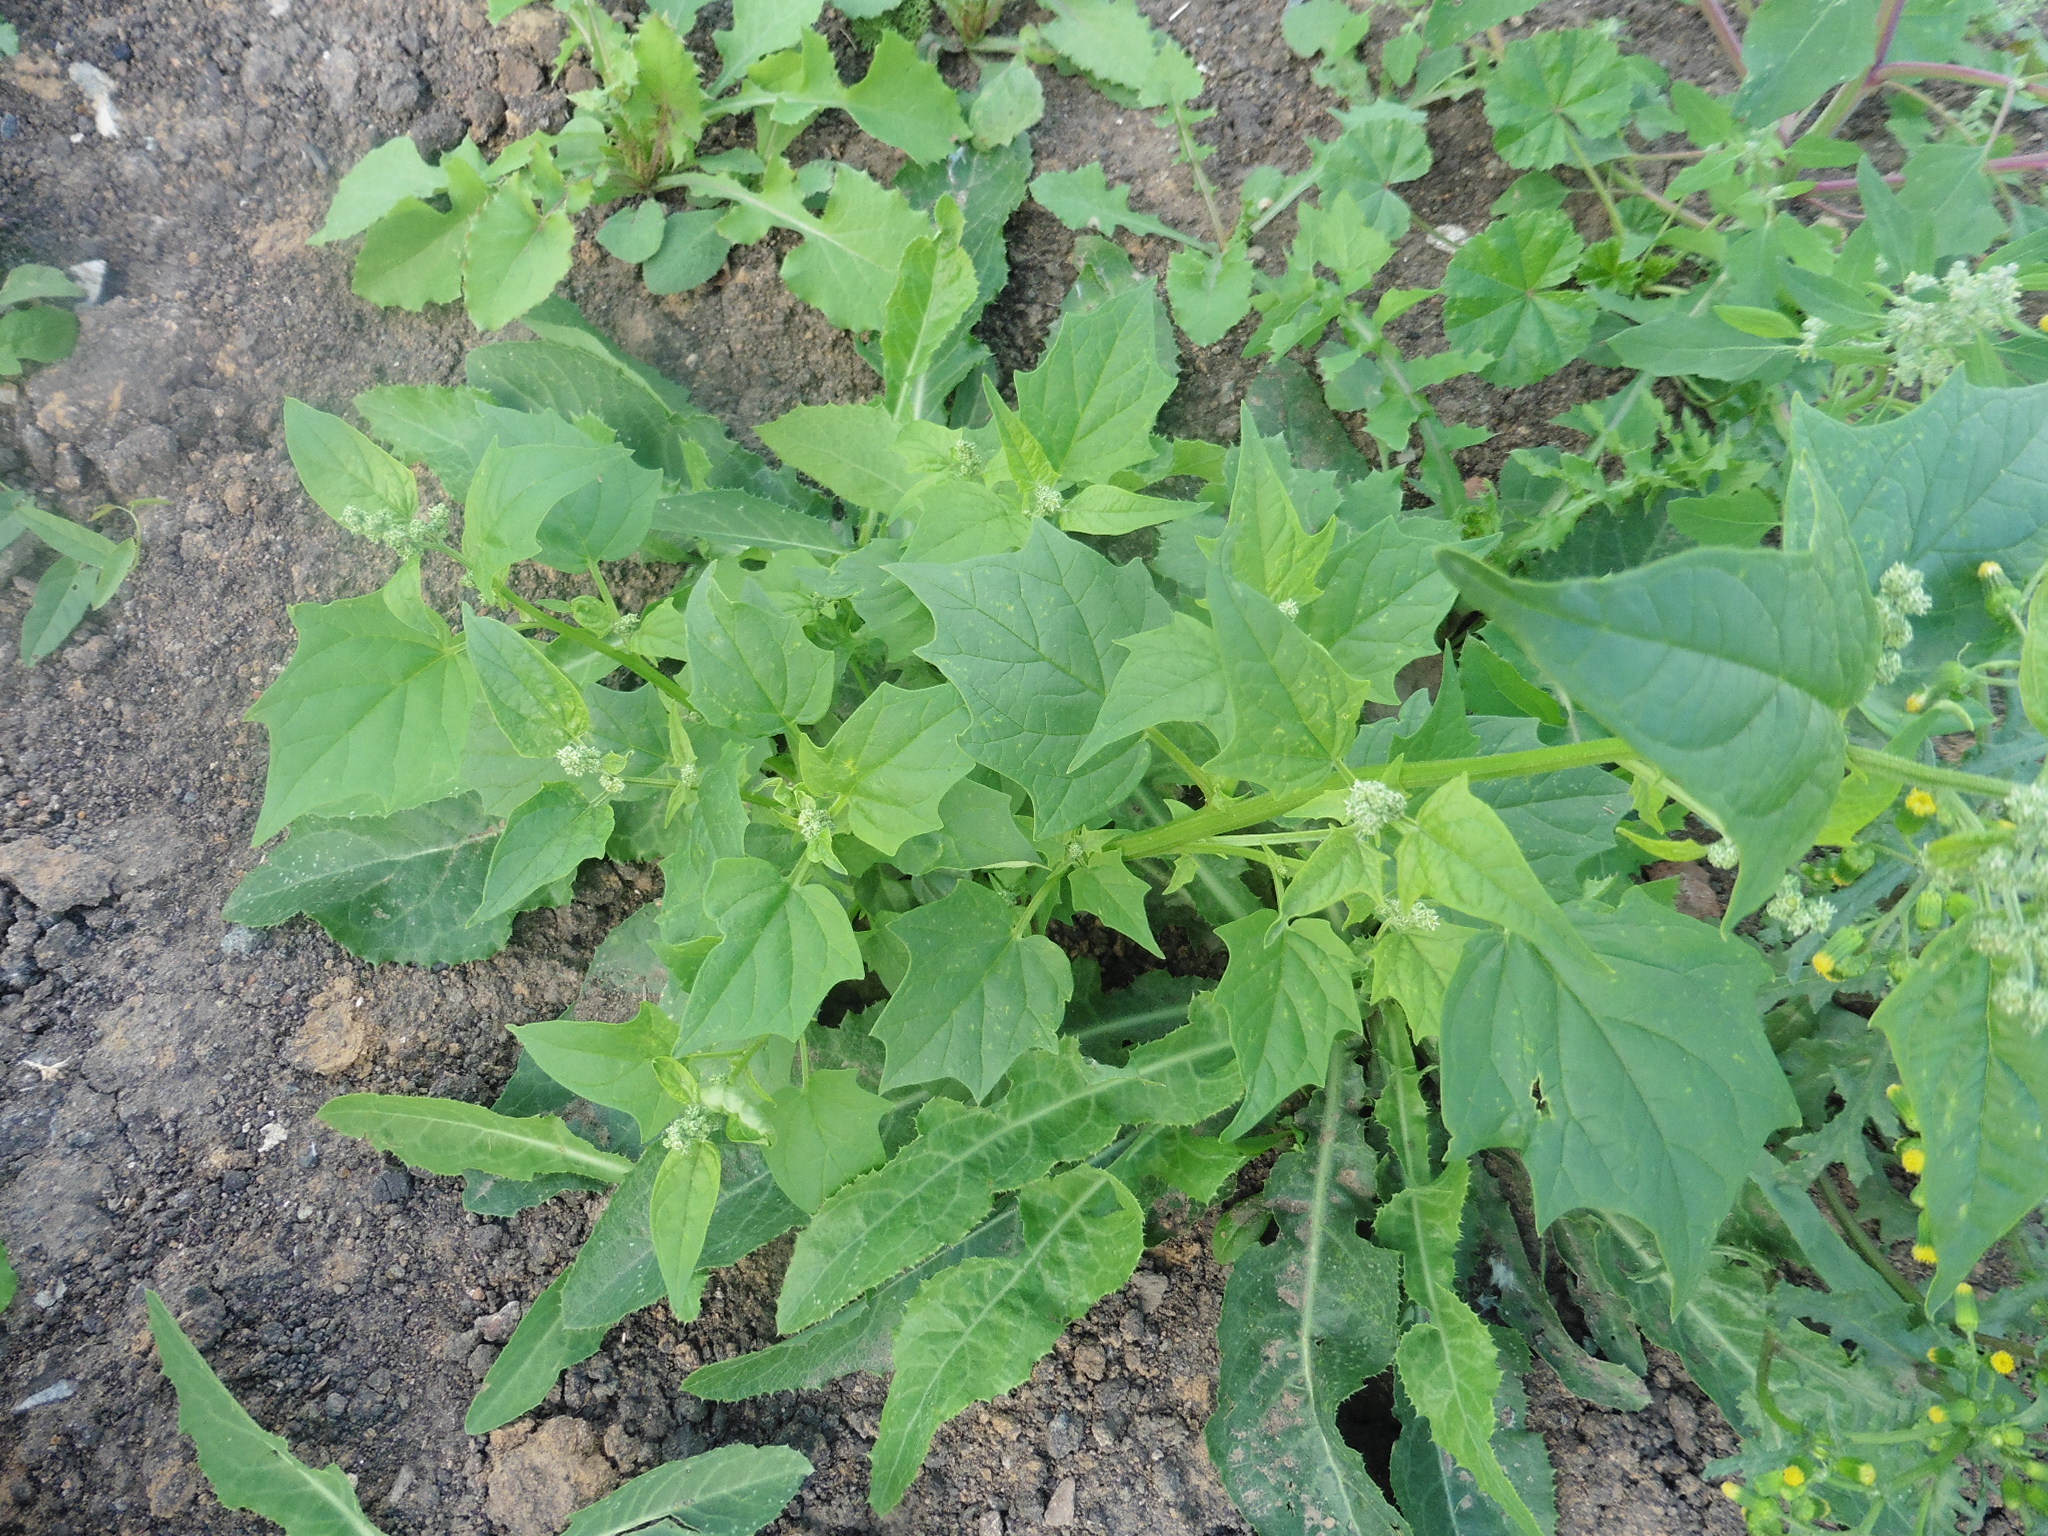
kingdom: Plantae
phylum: Tracheophyta
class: Magnoliopsida
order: Caryophyllales
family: Amaranthaceae
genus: Chenopodiastrum
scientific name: Chenopodiastrum hybridum
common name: Mapleleaf goosefoot
